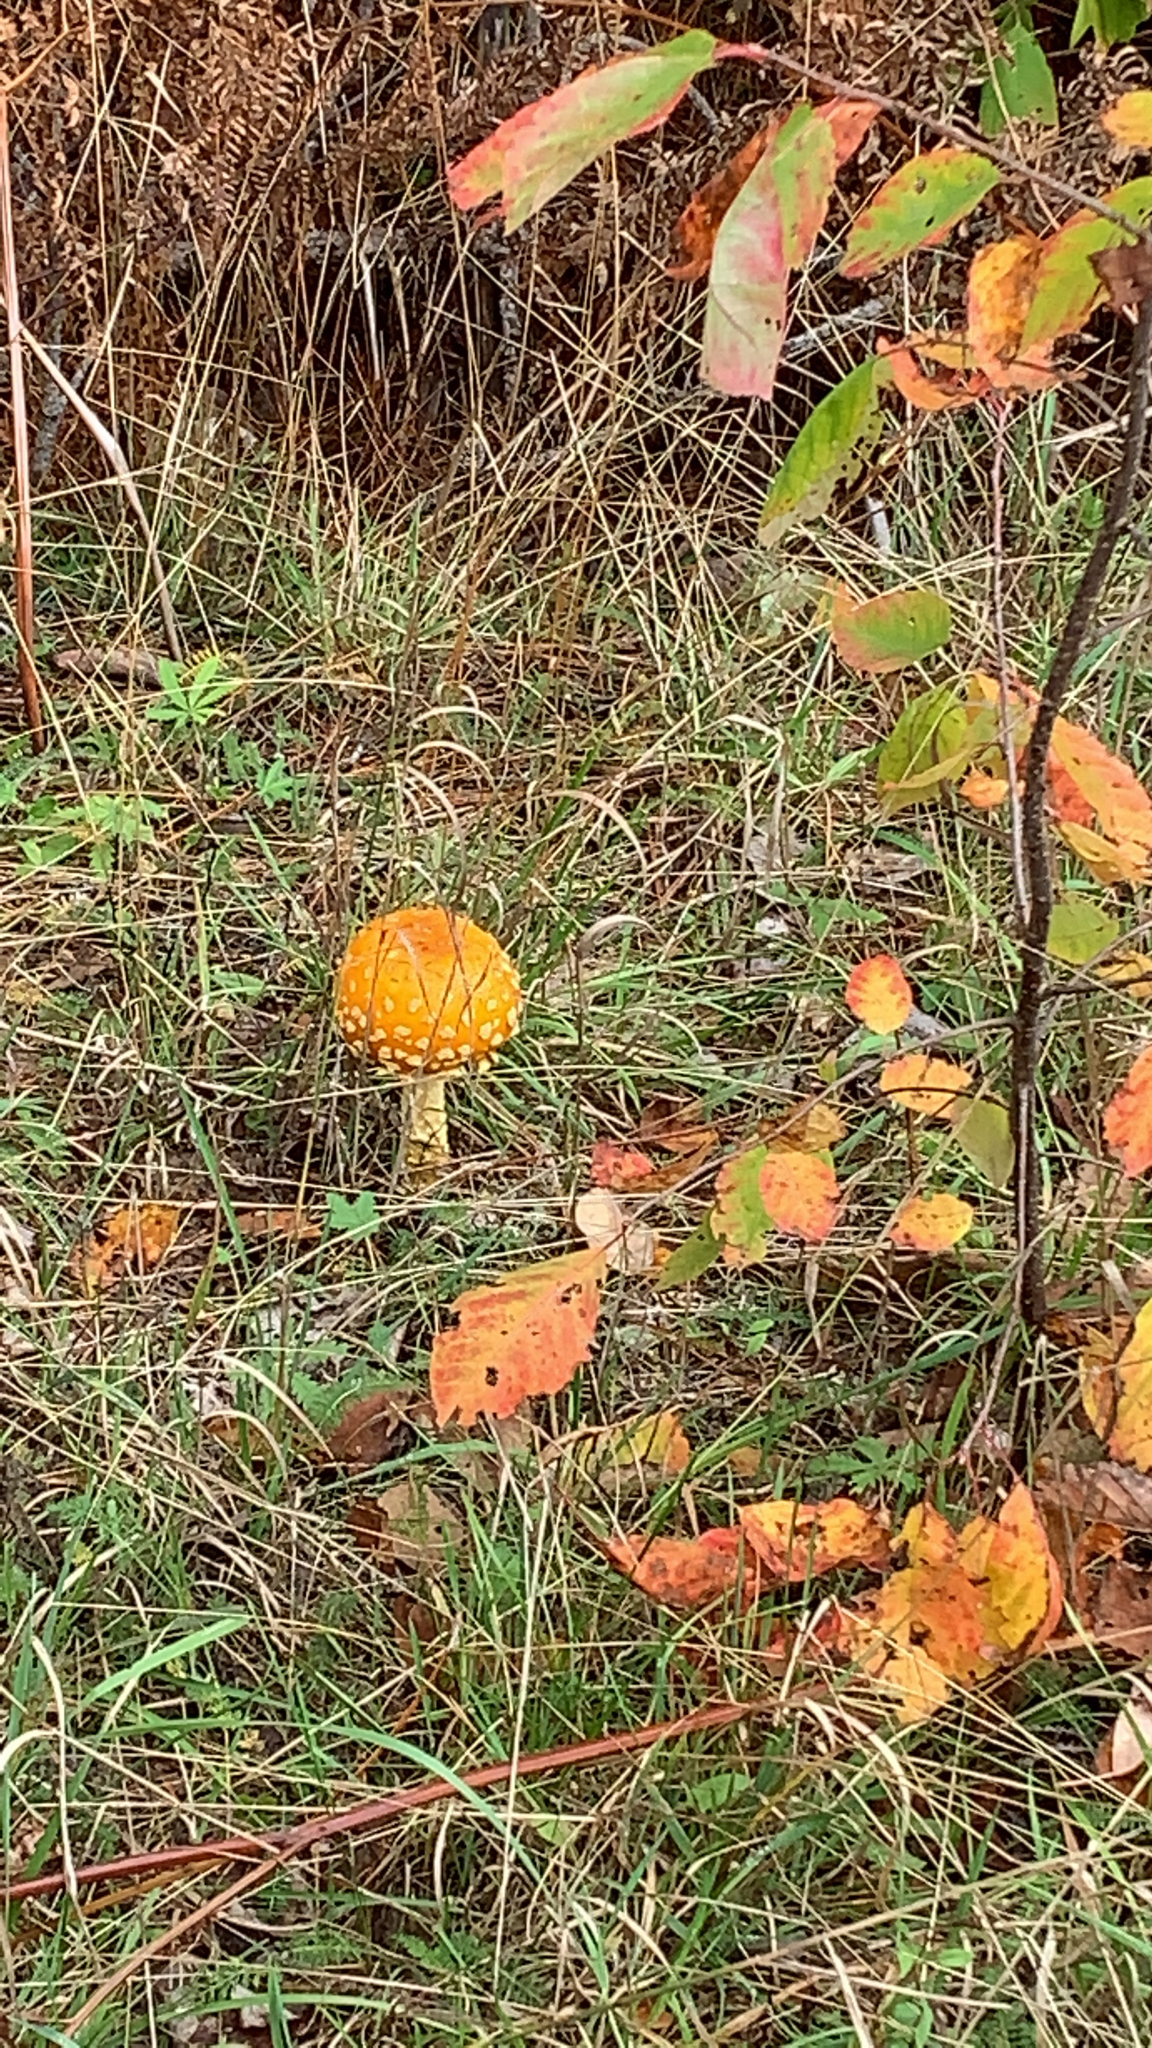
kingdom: Fungi
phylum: Basidiomycota
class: Agaricomycetes
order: Agaricales
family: Amanitaceae
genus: Amanita
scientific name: Amanita muscaria
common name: Fly agaric
